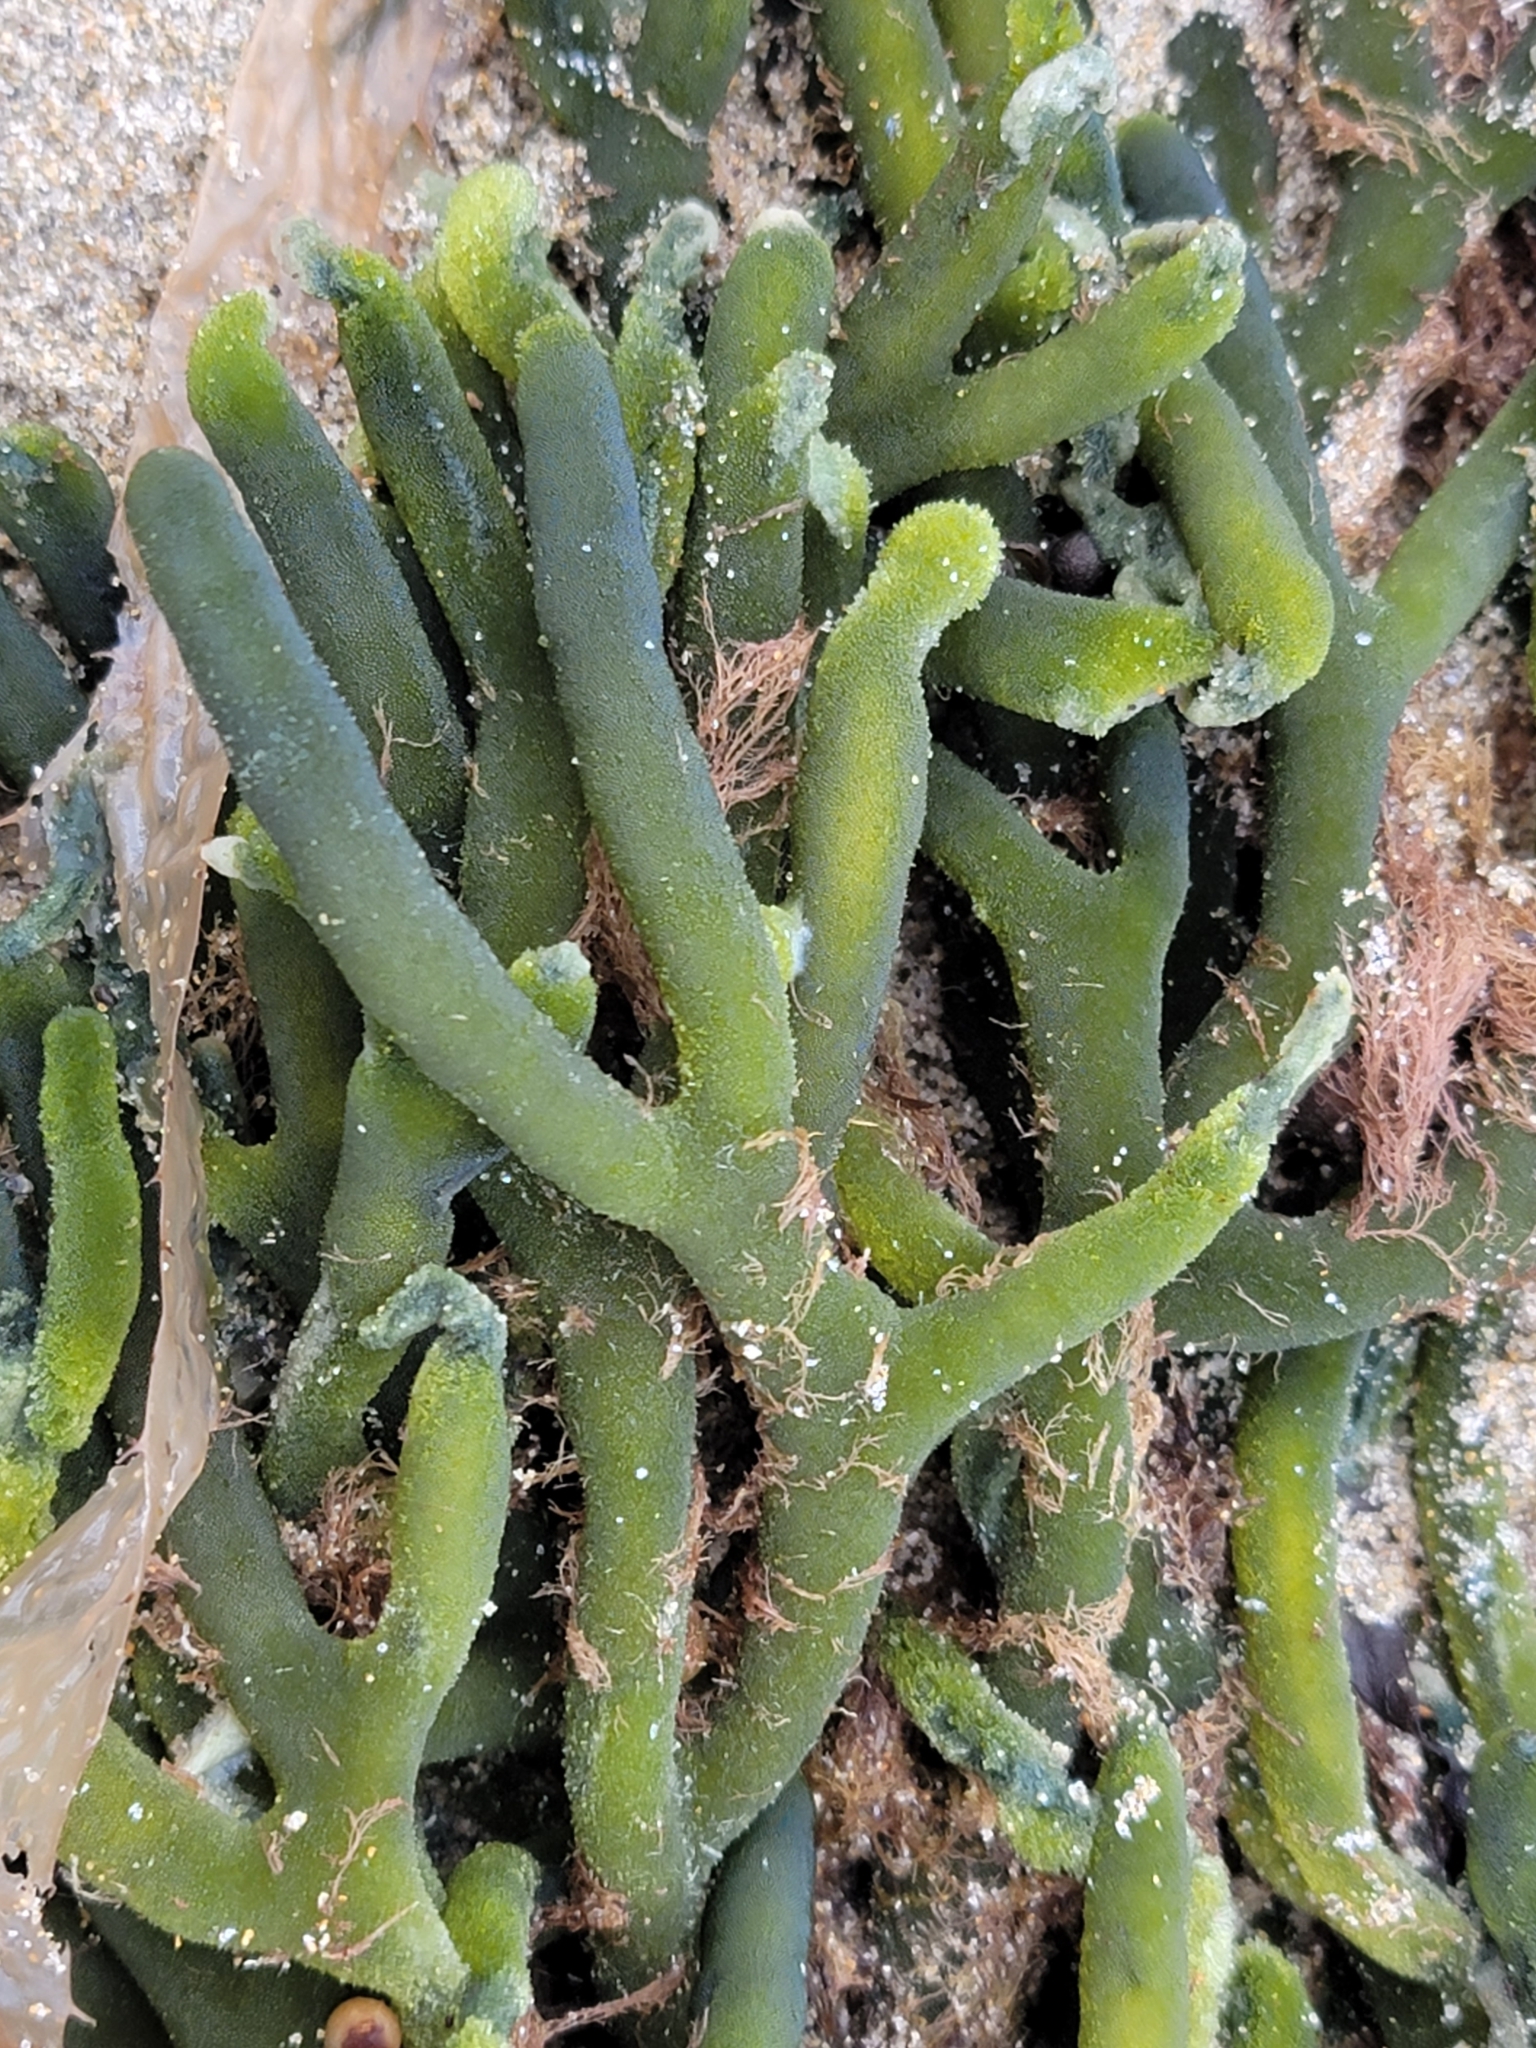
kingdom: Plantae
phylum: Chlorophyta
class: Ulvophyceae
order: Bryopsidales
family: Codiaceae
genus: Codium
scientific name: Codium fragile
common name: Dead man's fingers
